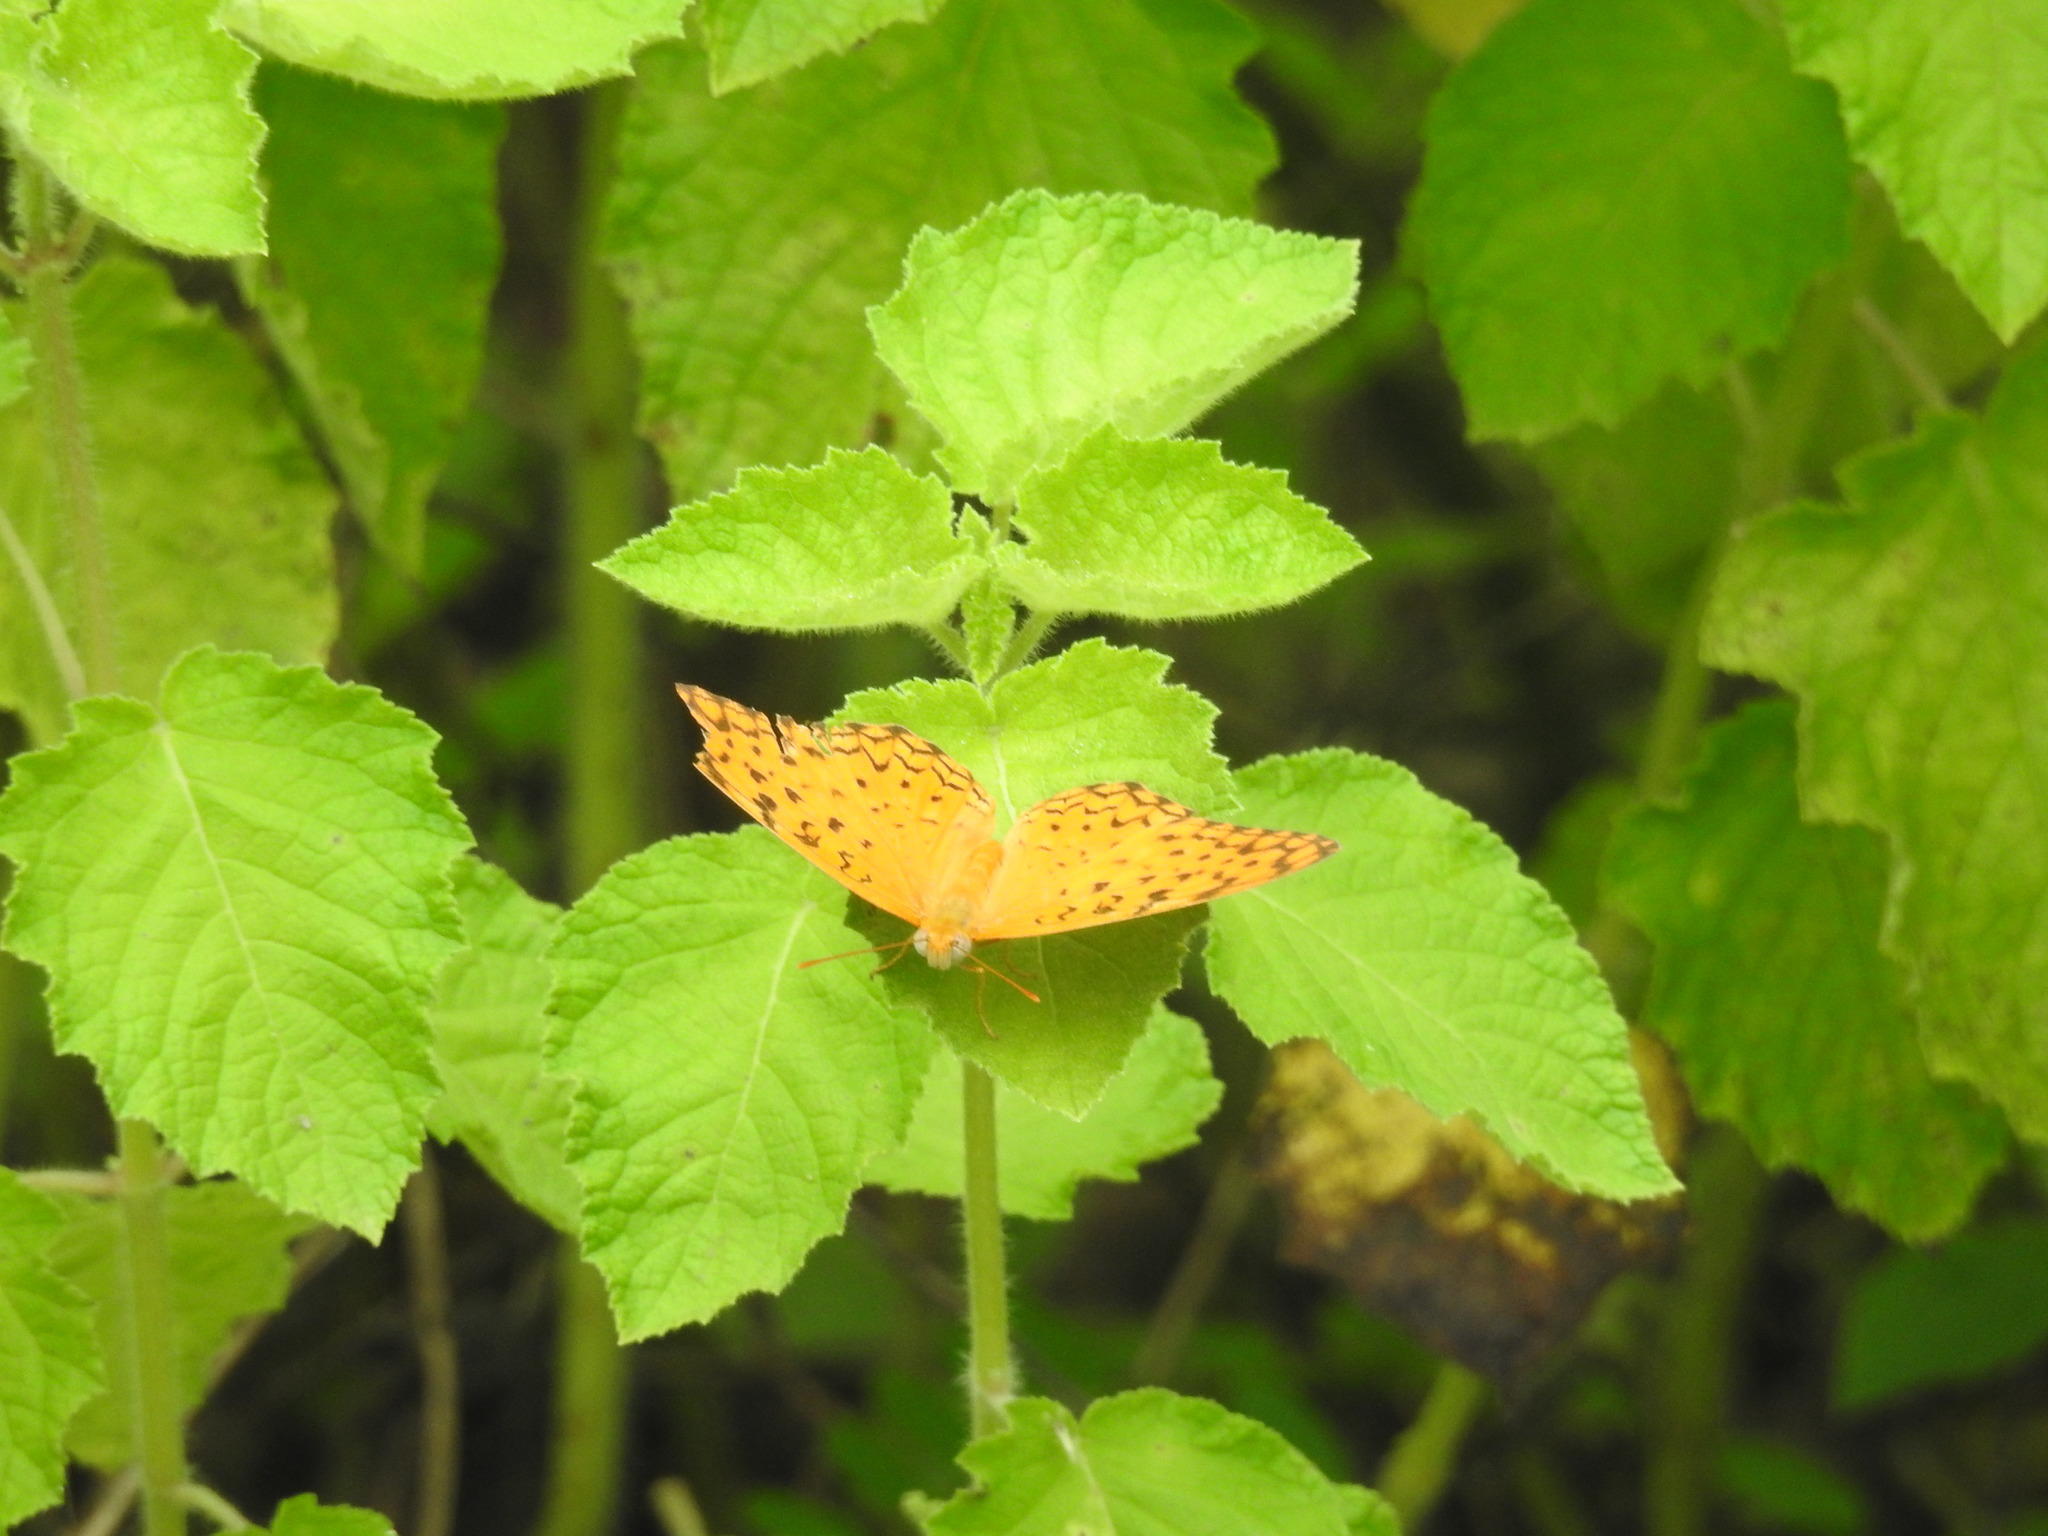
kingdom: Animalia
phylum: Arthropoda
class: Insecta
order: Lepidoptera
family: Nymphalidae
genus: Phalanta
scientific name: Phalanta phalantha
